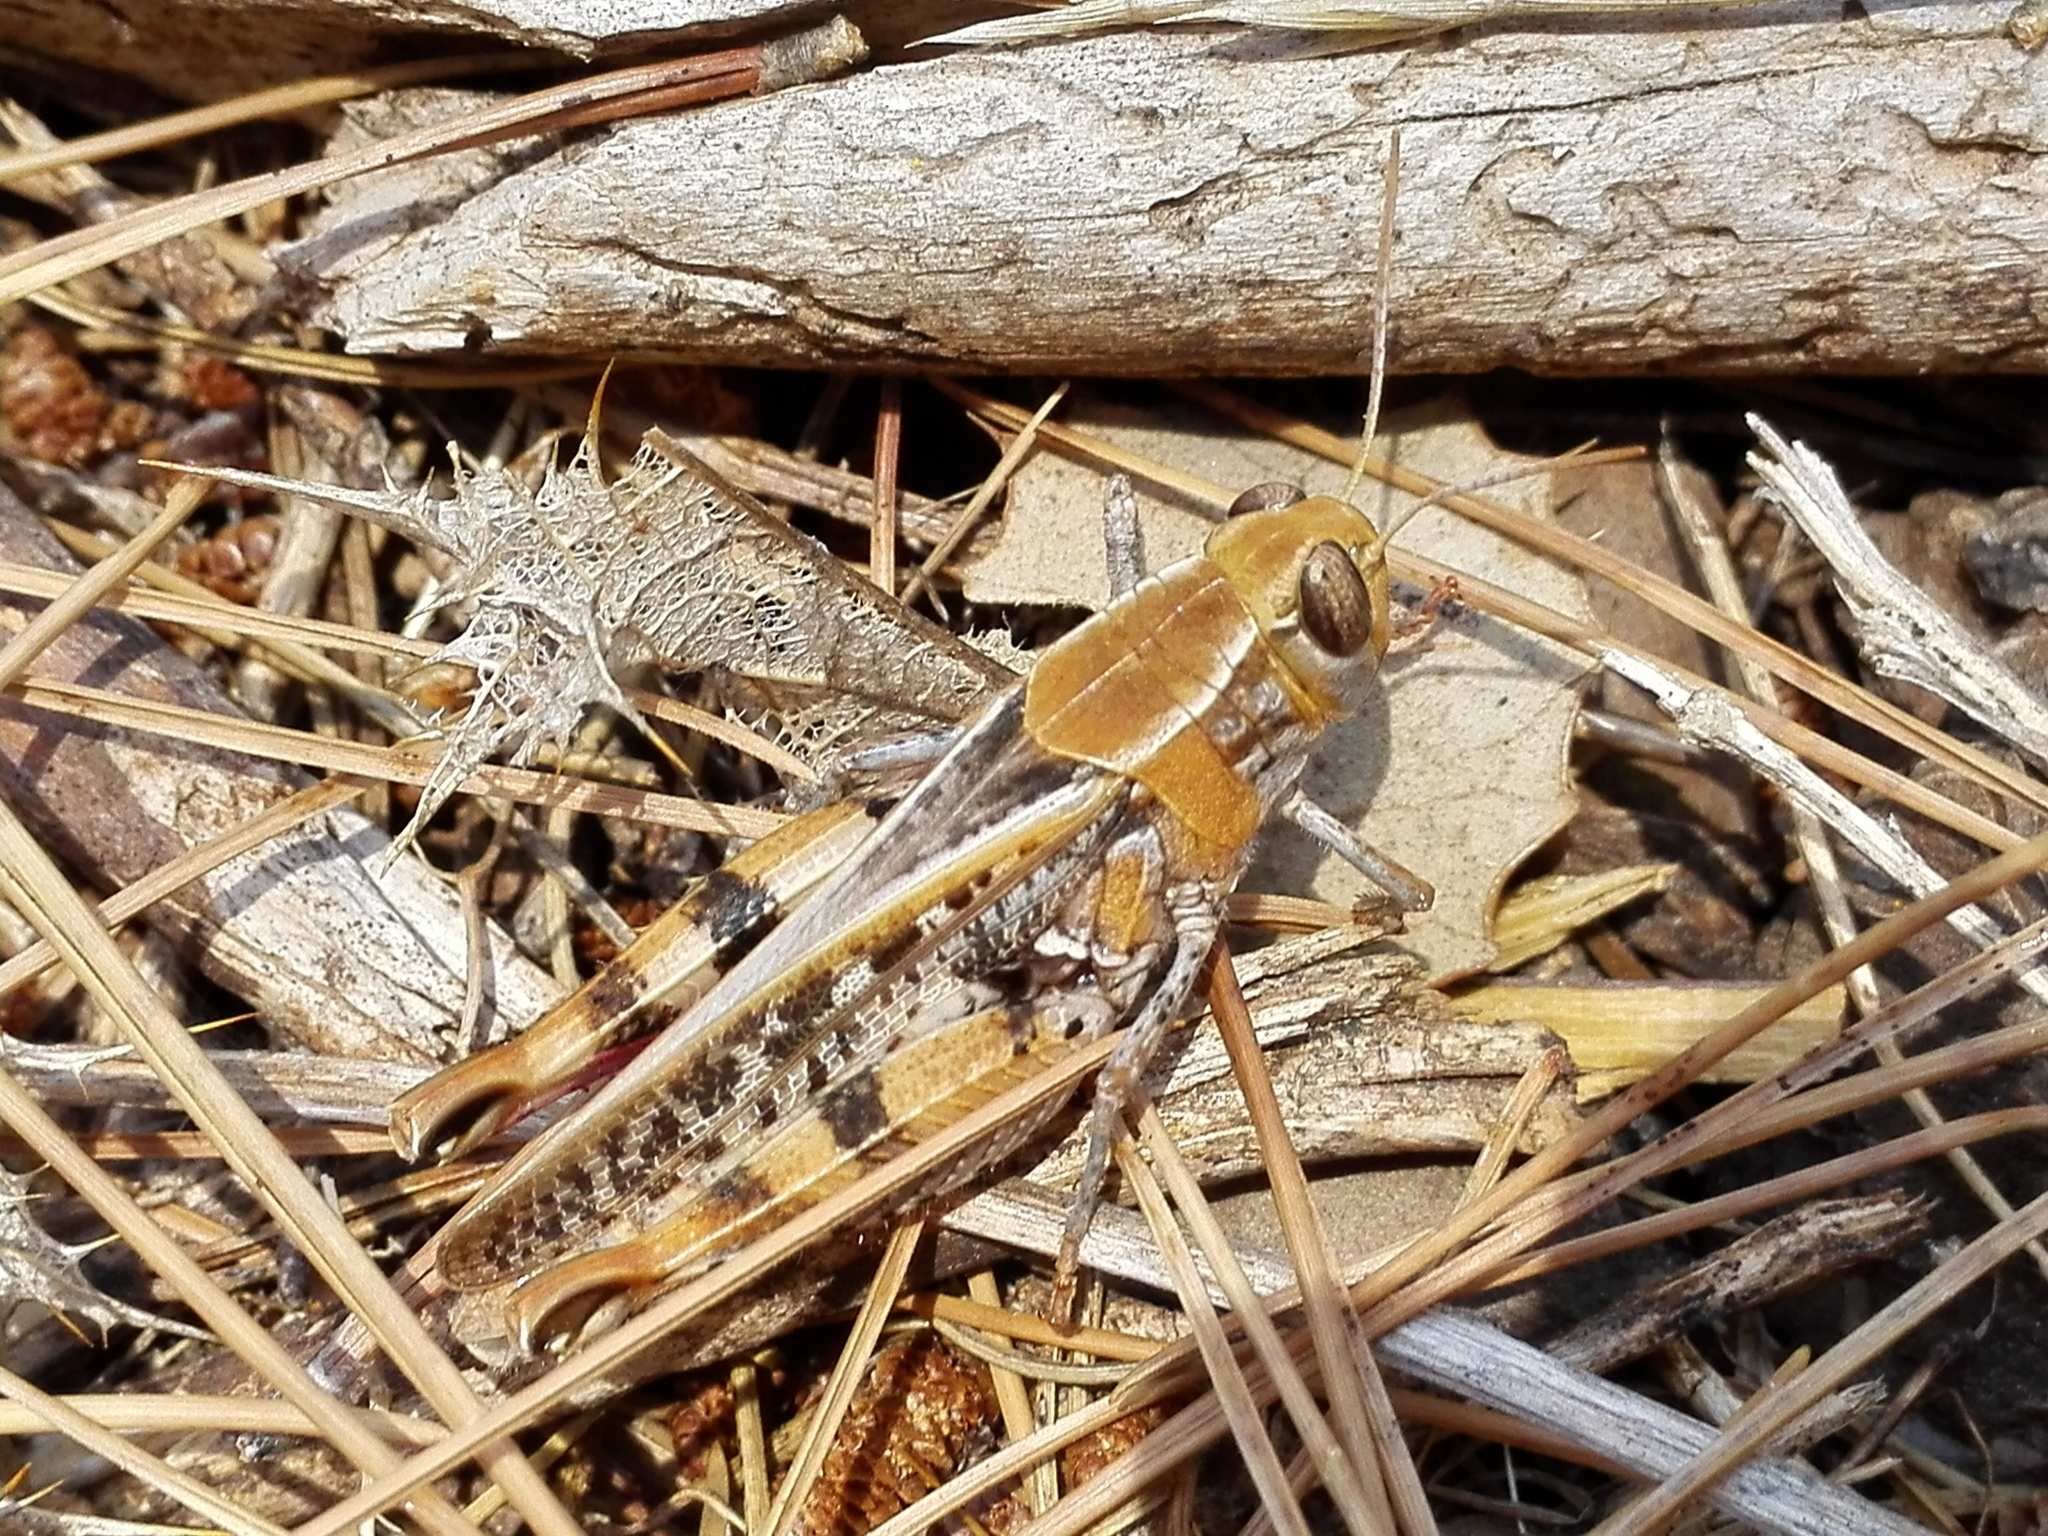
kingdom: Animalia
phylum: Arthropoda
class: Insecta
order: Orthoptera
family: Acrididae
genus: Calliptamus
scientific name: Calliptamus barbarus
